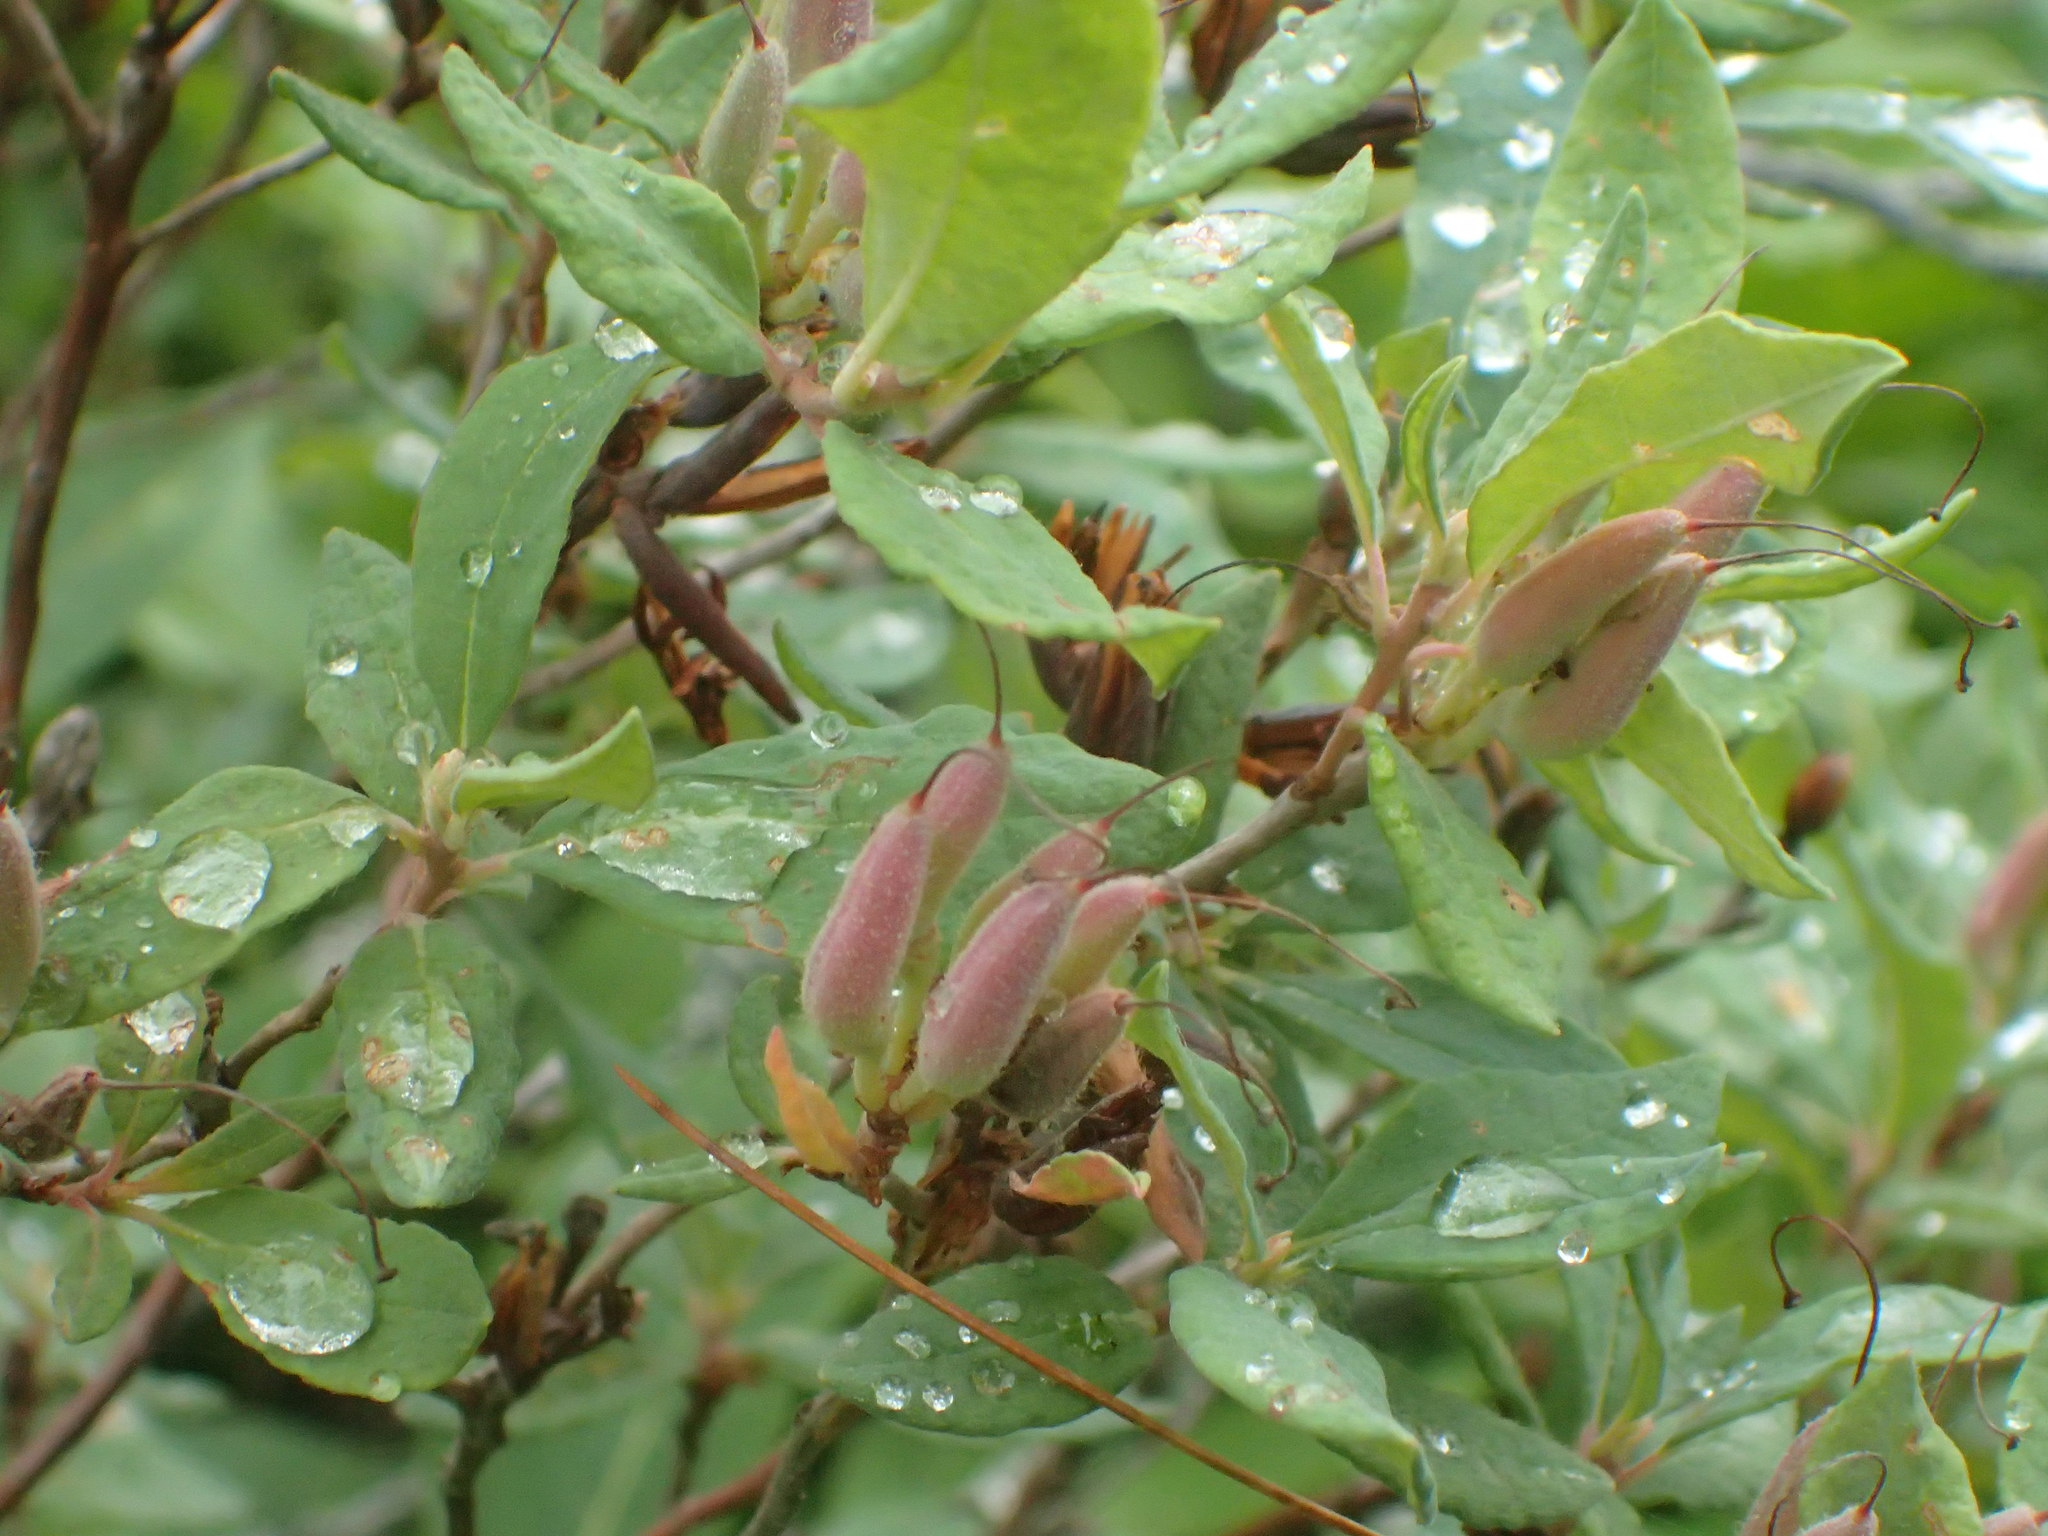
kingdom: Plantae
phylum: Tracheophyta
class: Magnoliopsida
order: Ericales
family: Ericaceae
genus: Rhododendron
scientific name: Rhododendron canadense
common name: Rhodora
